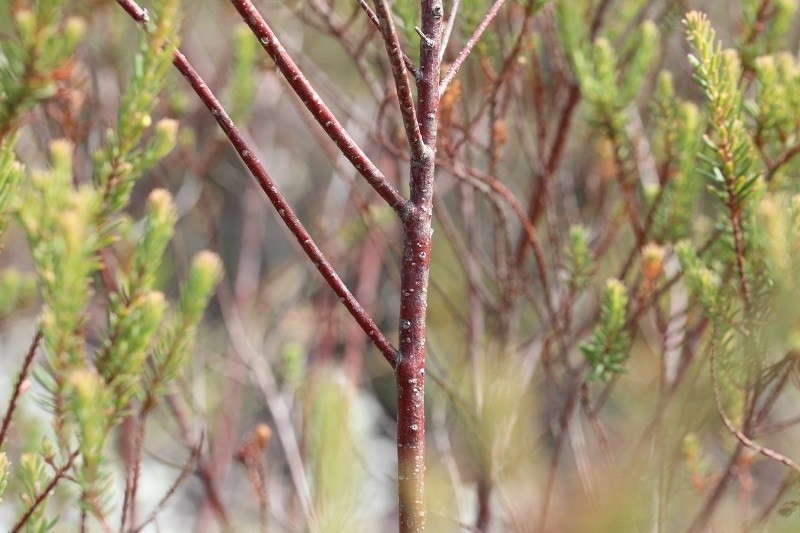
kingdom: Plantae
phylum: Tracheophyta
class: Magnoliopsida
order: Malpighiales
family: Peraceae
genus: Clutia
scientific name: Clutia polifolia
